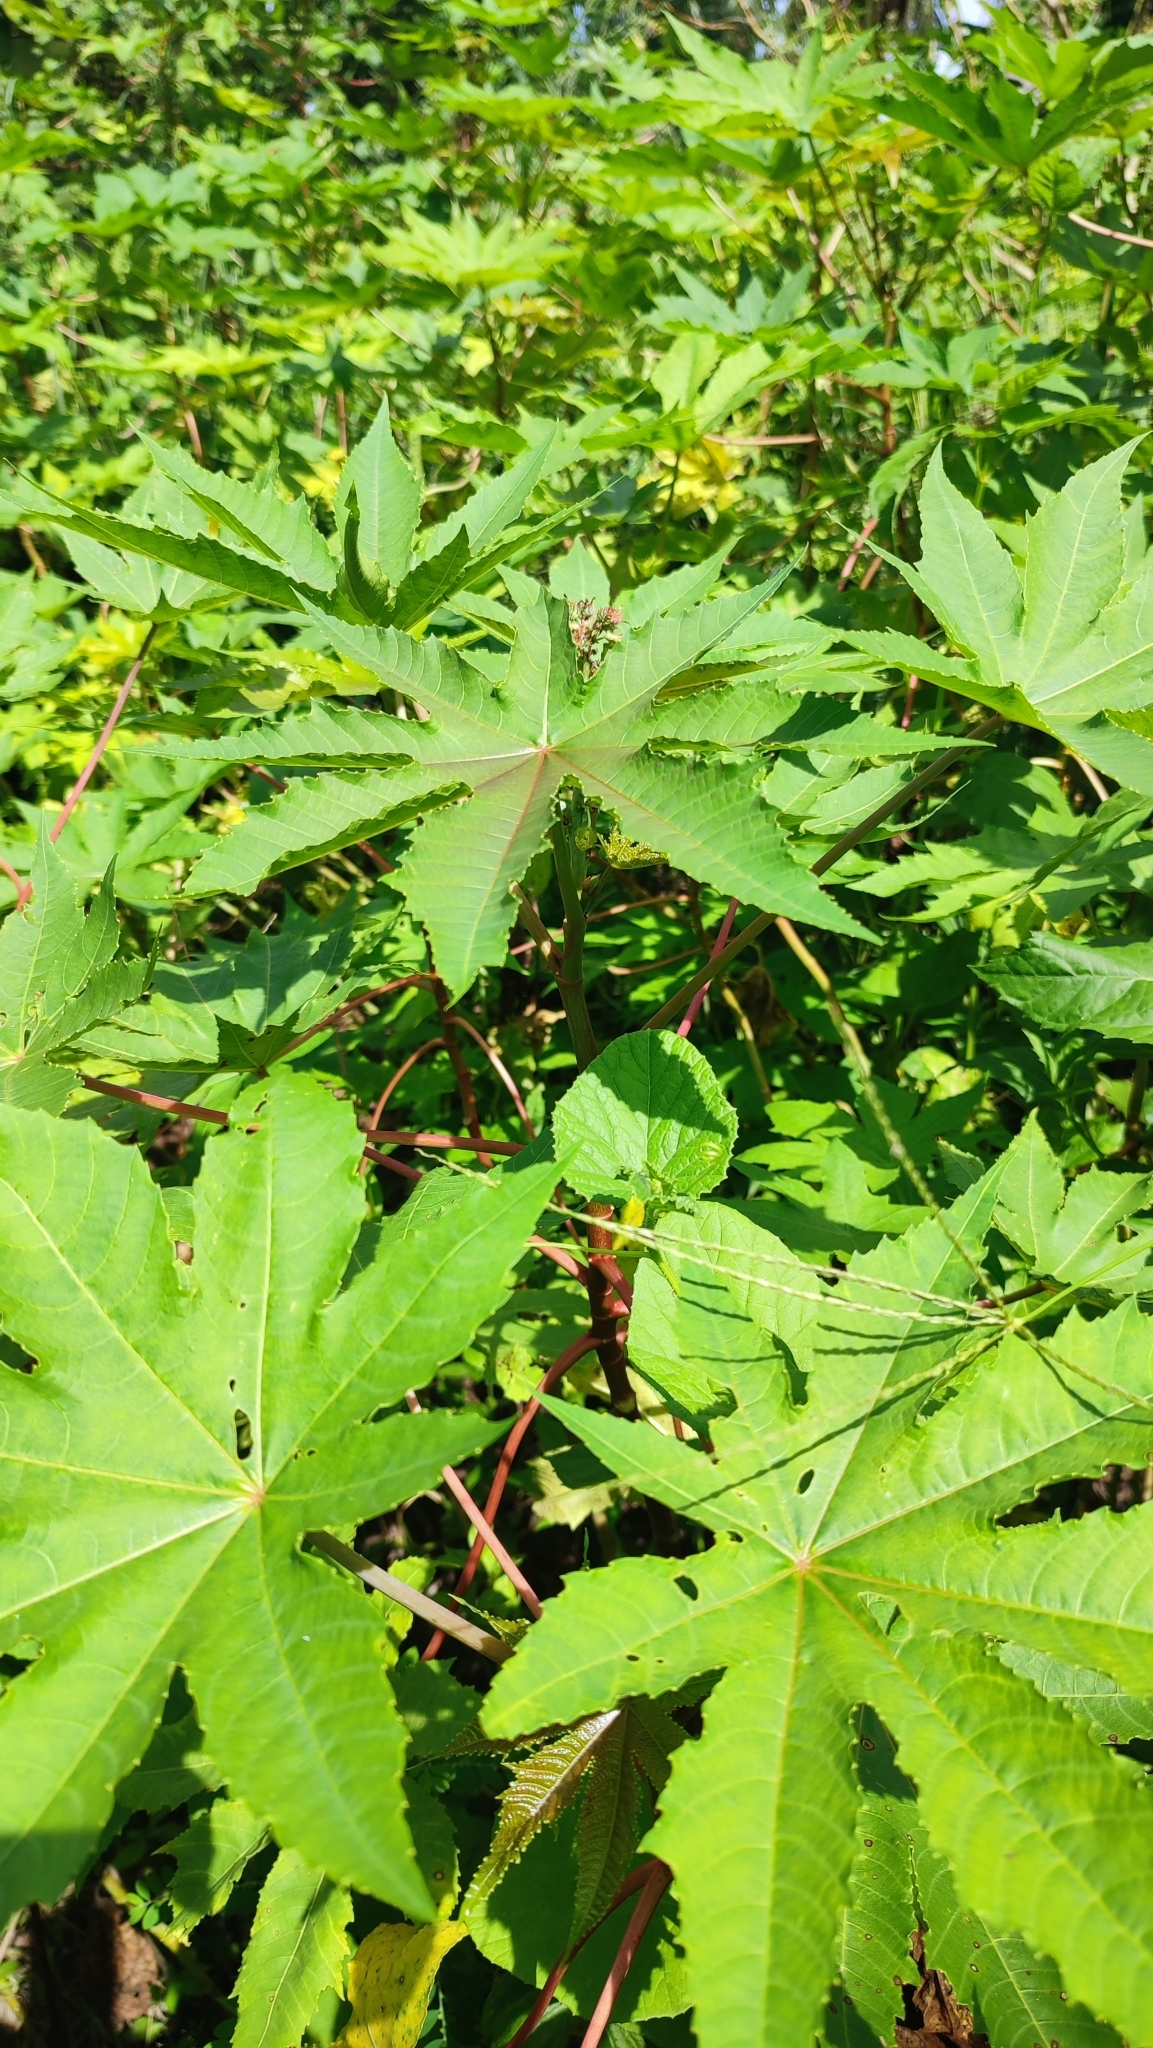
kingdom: Plantae
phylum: Tracheophyta
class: Magnoliopsida
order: Malpighiales
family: Euphorbiaceae
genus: Ricinus
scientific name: Ricinus communis
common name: Castor-oil-plant
